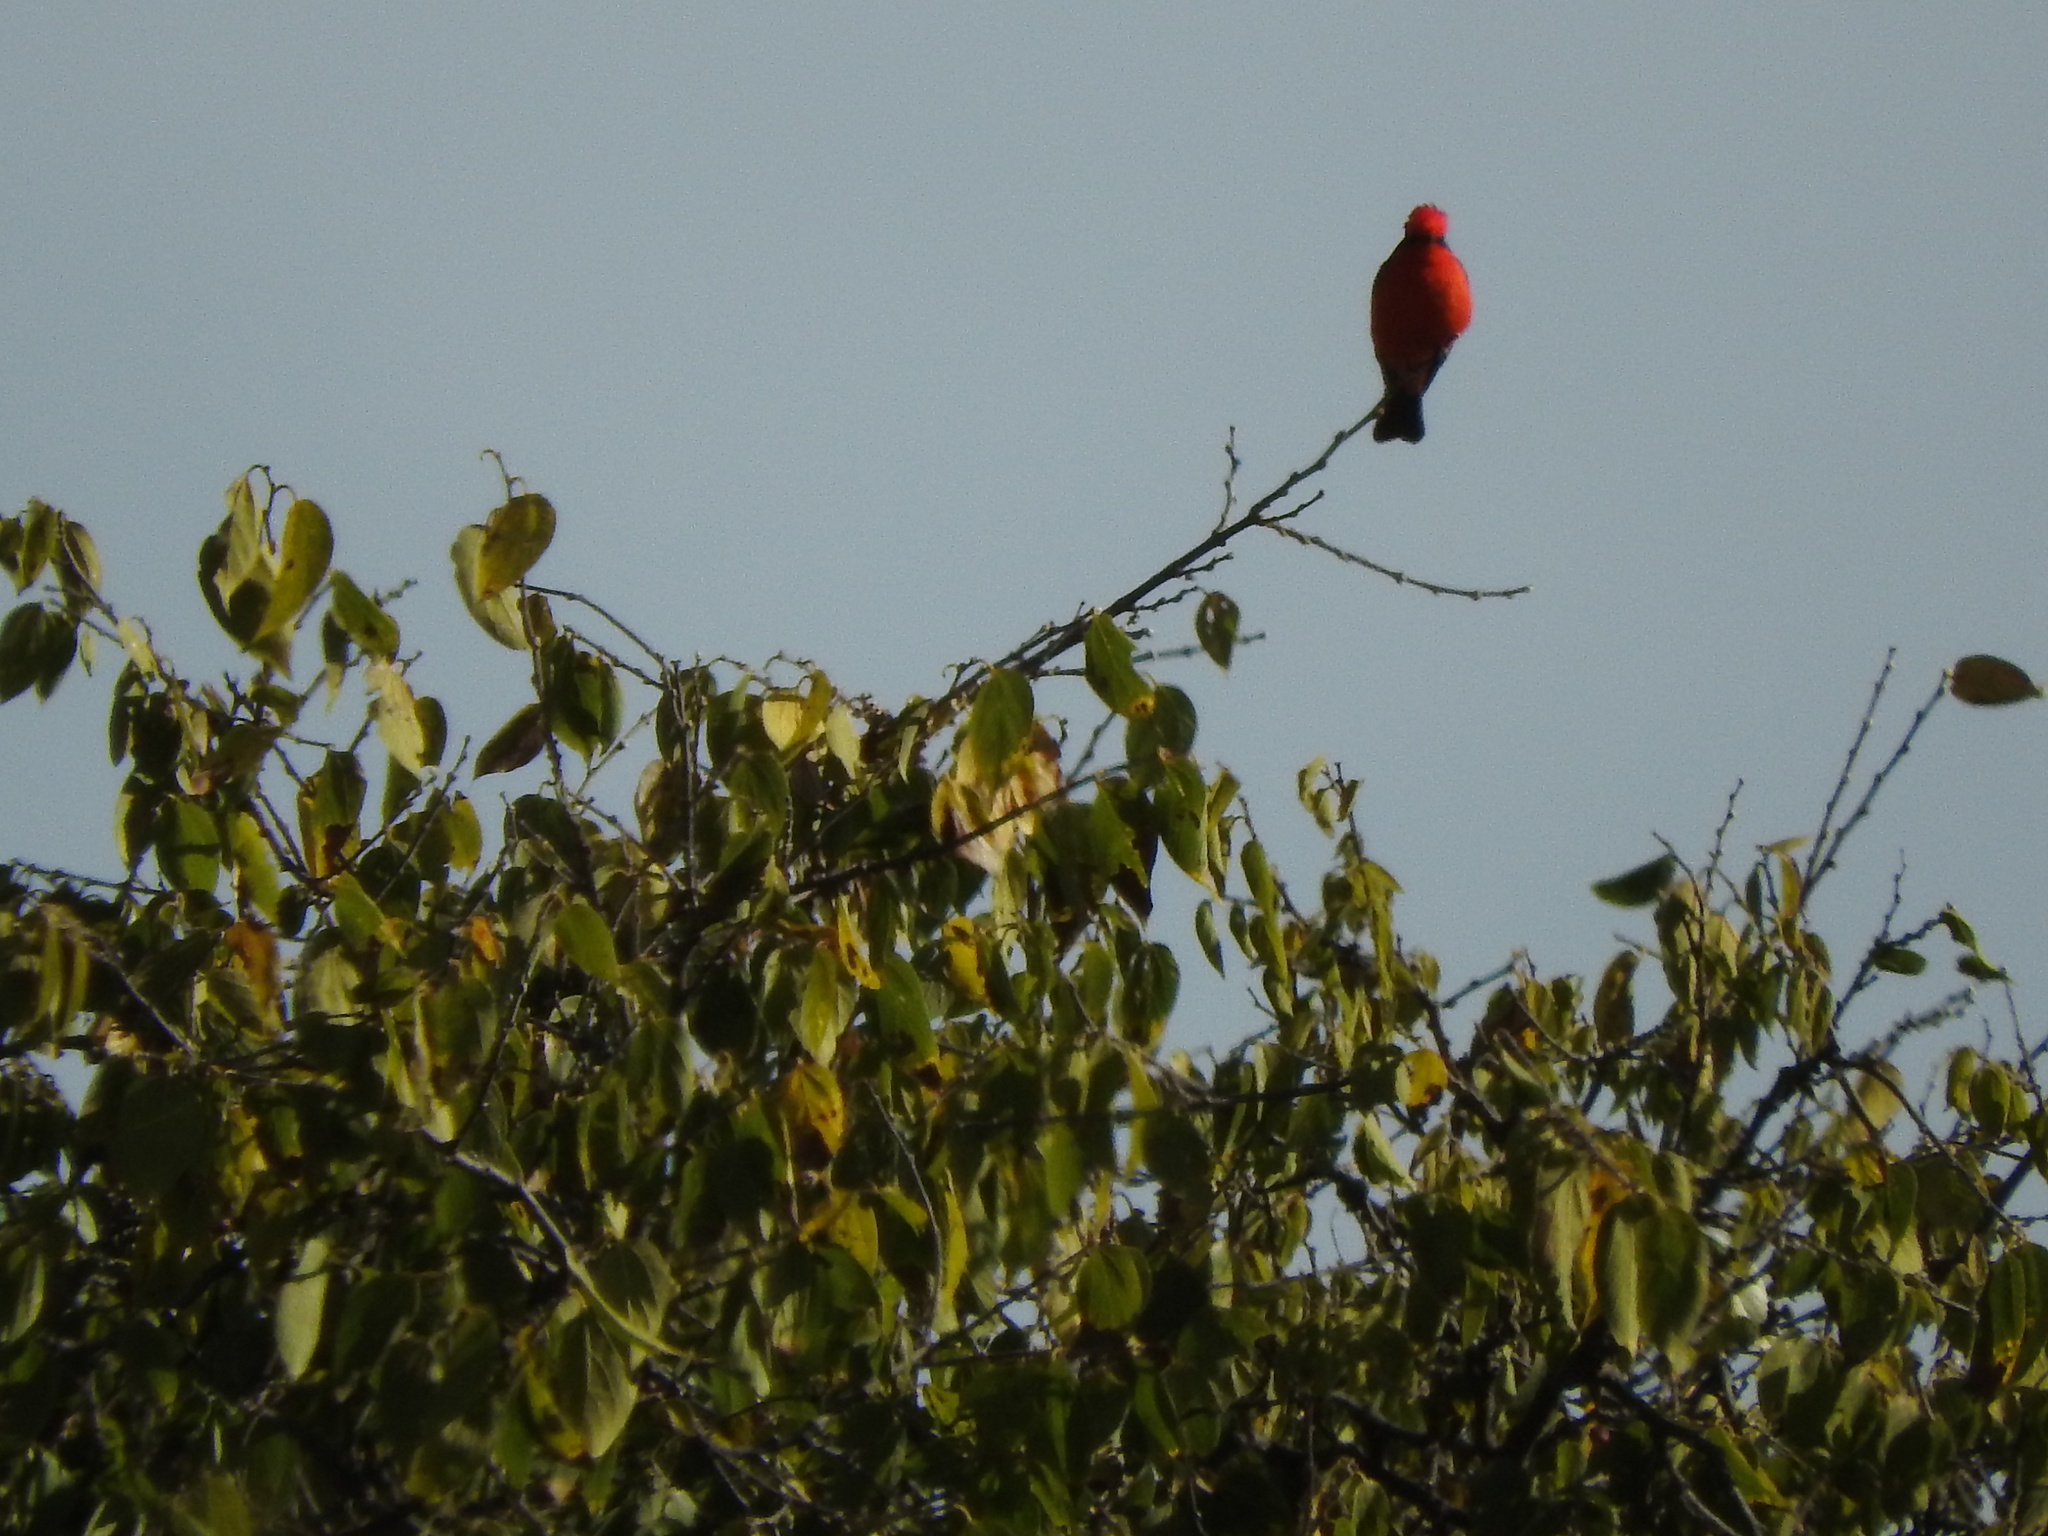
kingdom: Animalia
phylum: Chordata
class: Aves
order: Passeriformes
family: Tyrannidae
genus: Pyrocephalus
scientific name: Pyrocephalus rubinus
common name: Vermilion flycatcher
